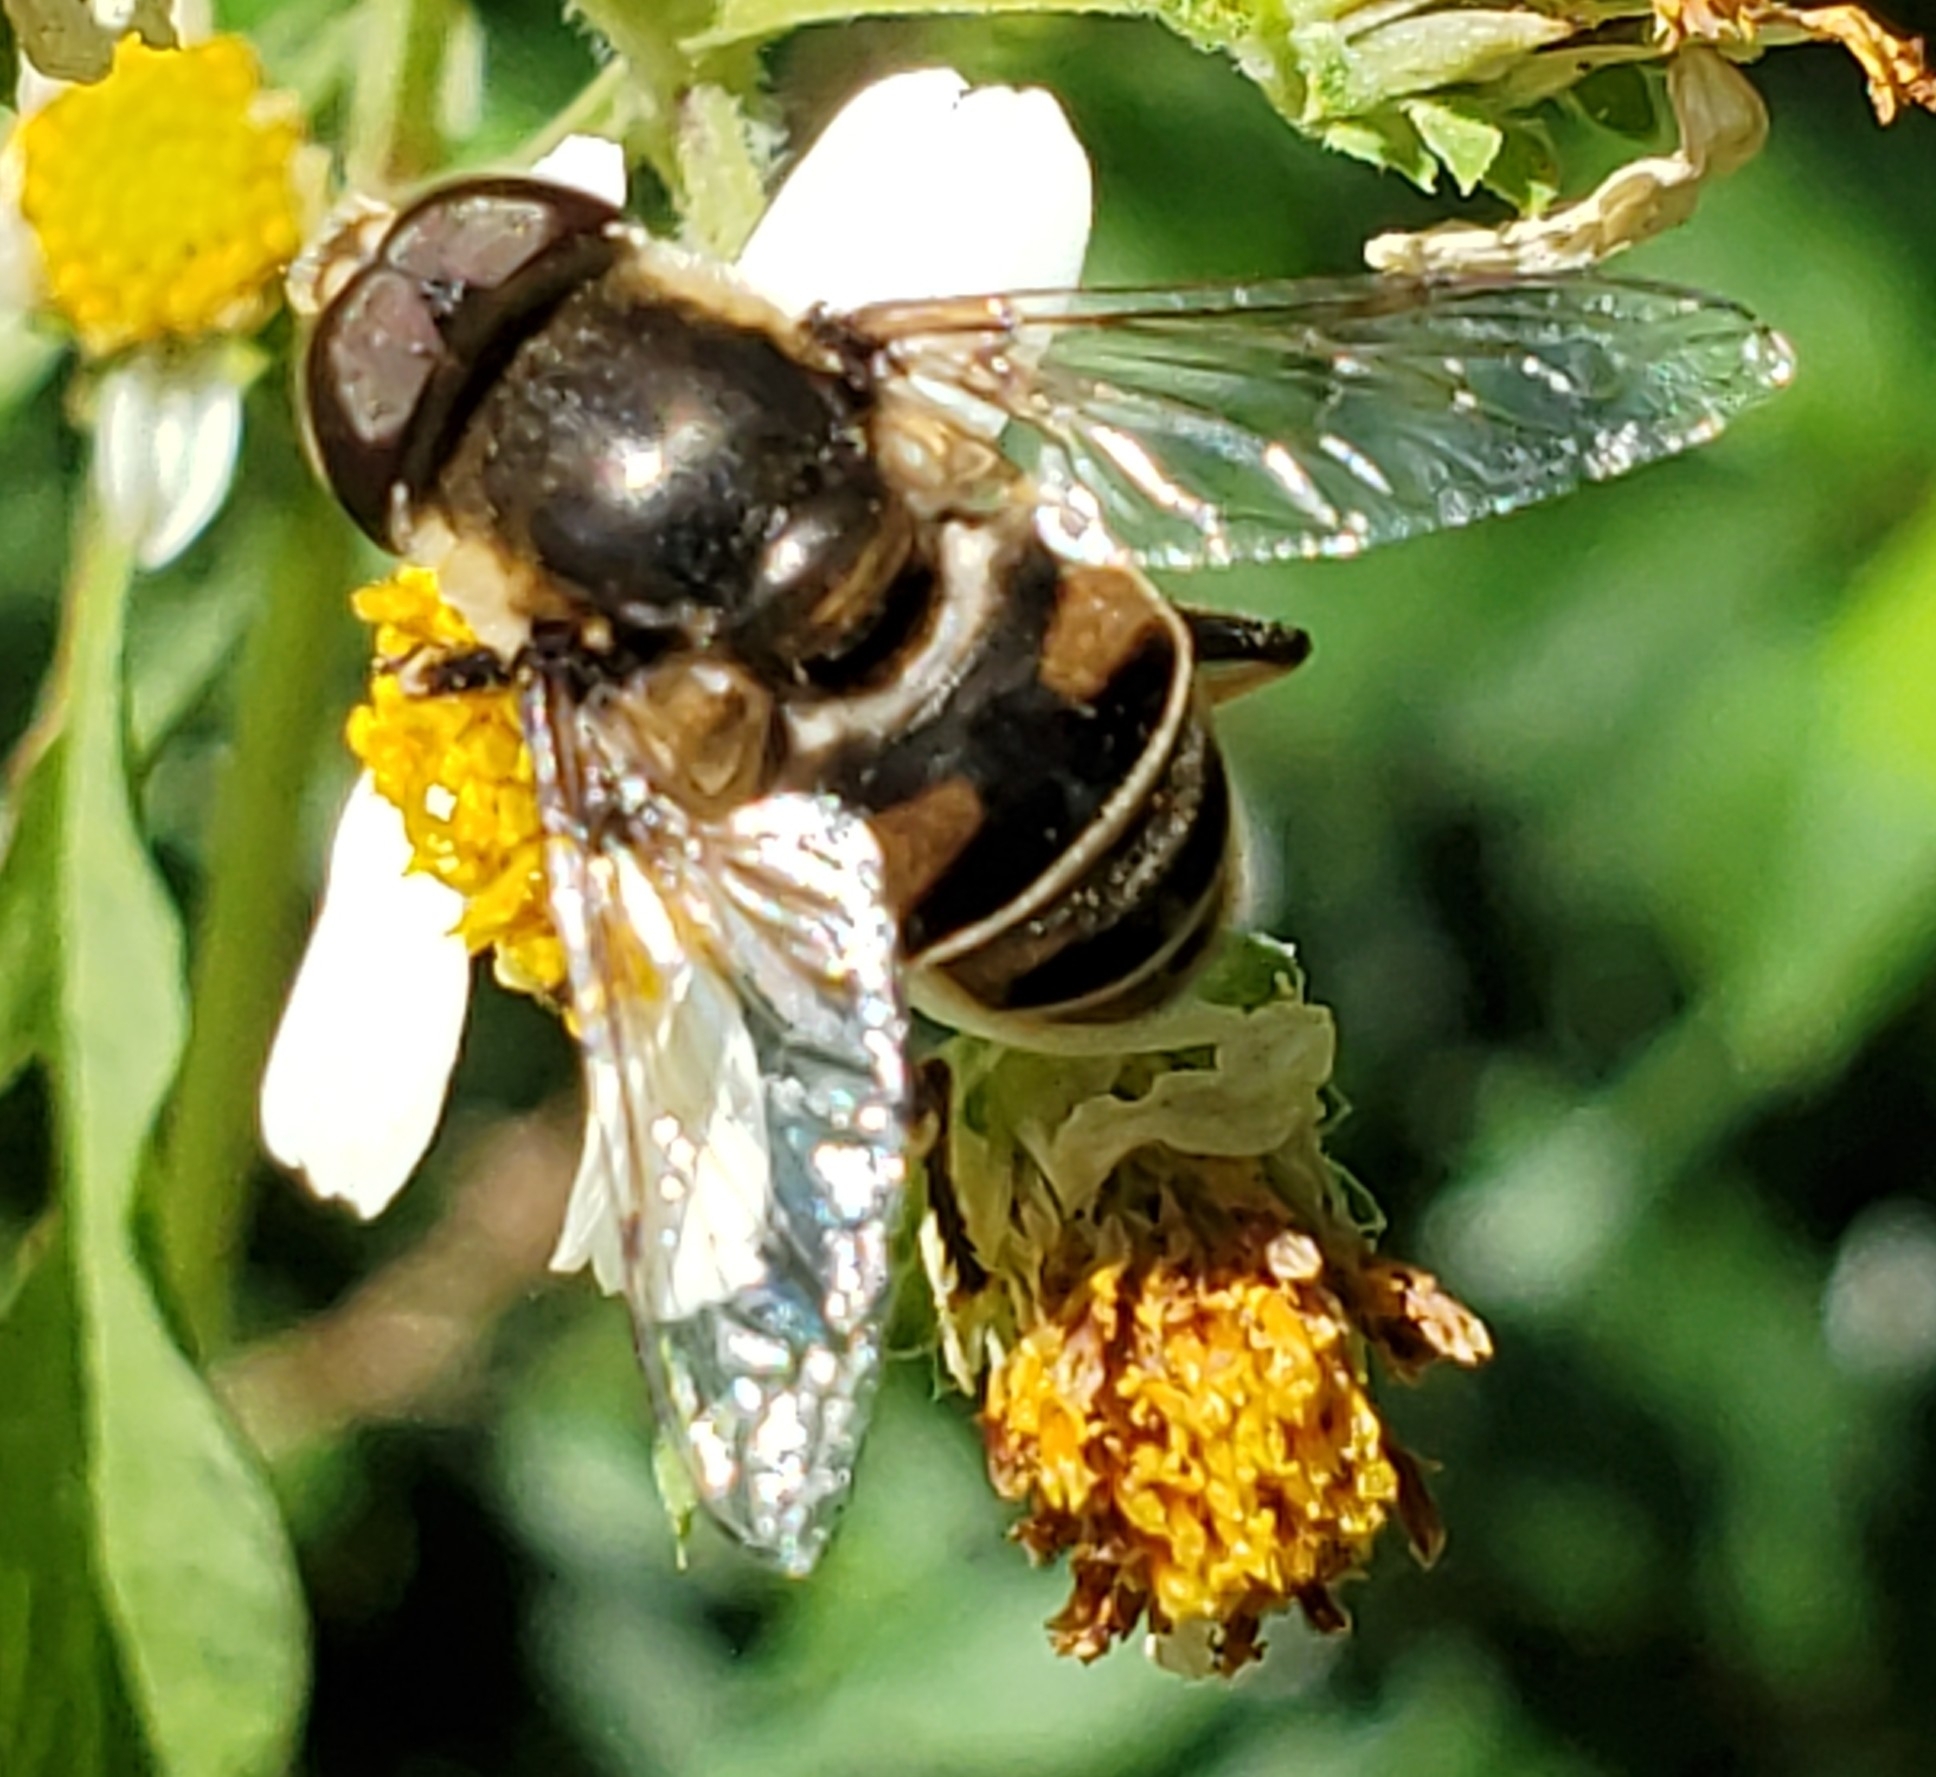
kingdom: Animalia
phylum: Arthropoda
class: Insecta
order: Diptera
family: Syrphidae
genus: Eristalis
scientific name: Eristalis dimidiata
